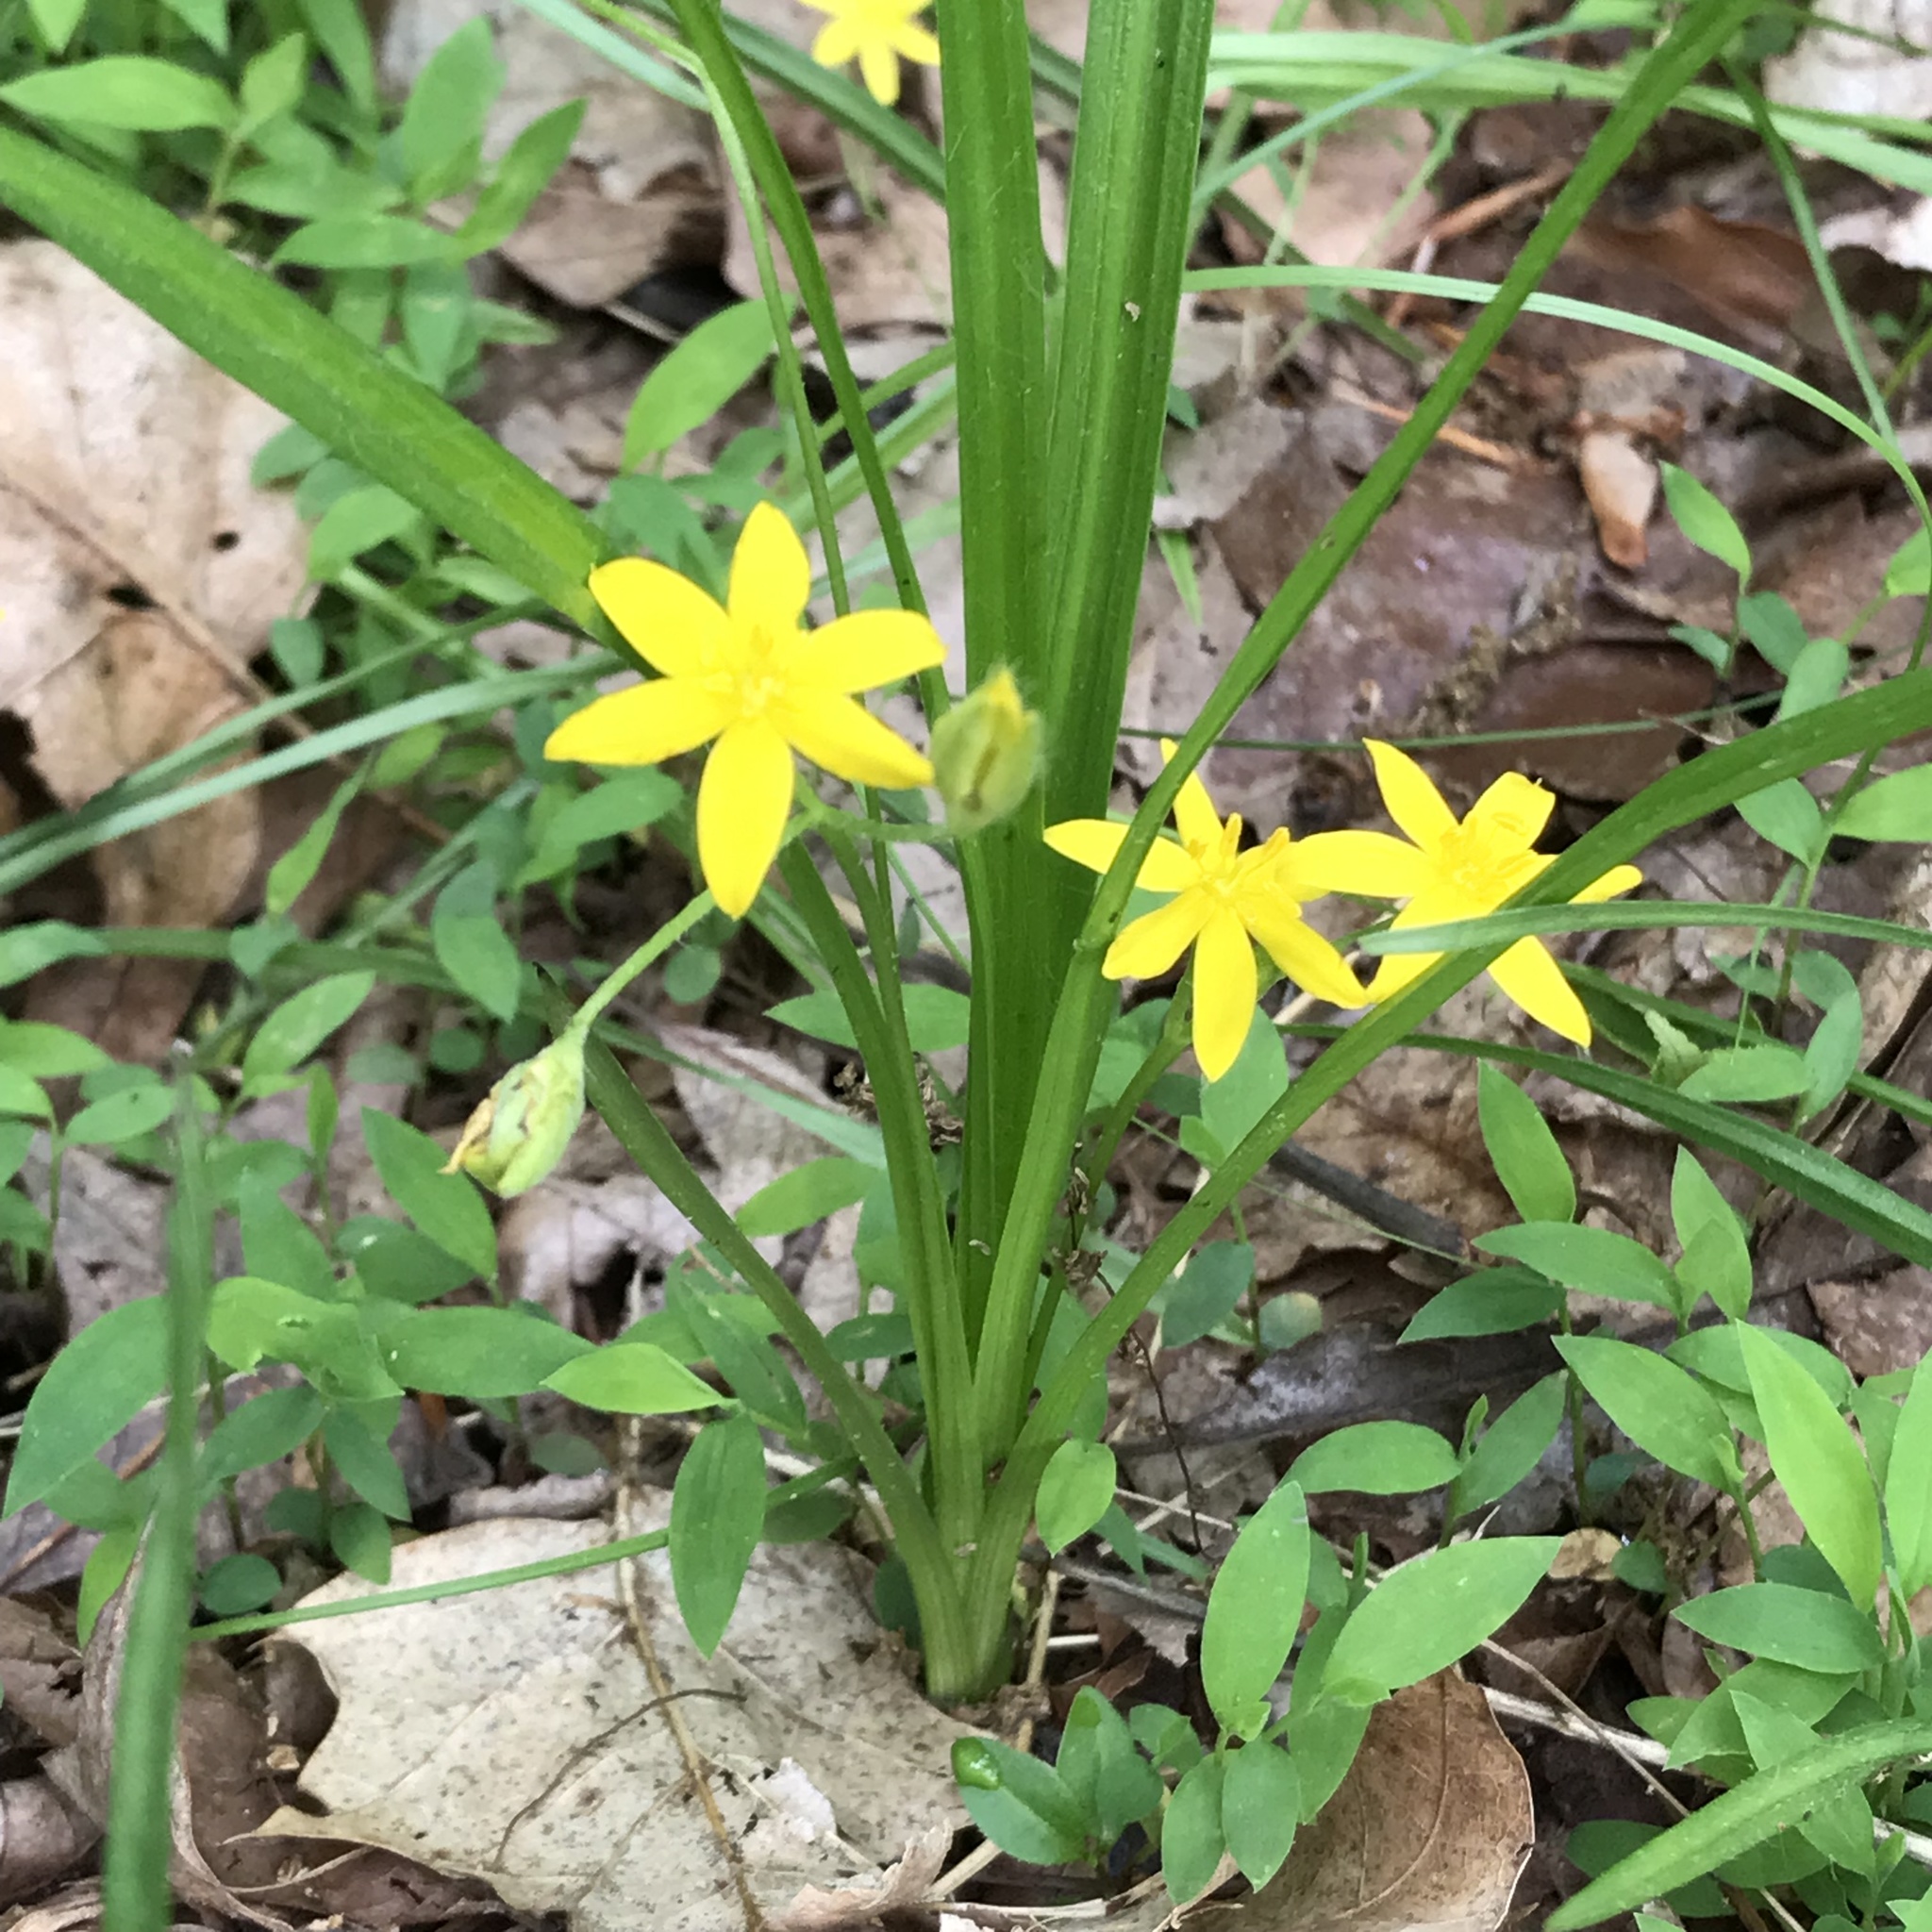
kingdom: Plantae
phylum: Tracheophyta
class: Liliopsida
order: Asparagales
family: Hypoxidaceae
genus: Hypoxis
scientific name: Hypoxis hirsuta
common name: Common goldstar
